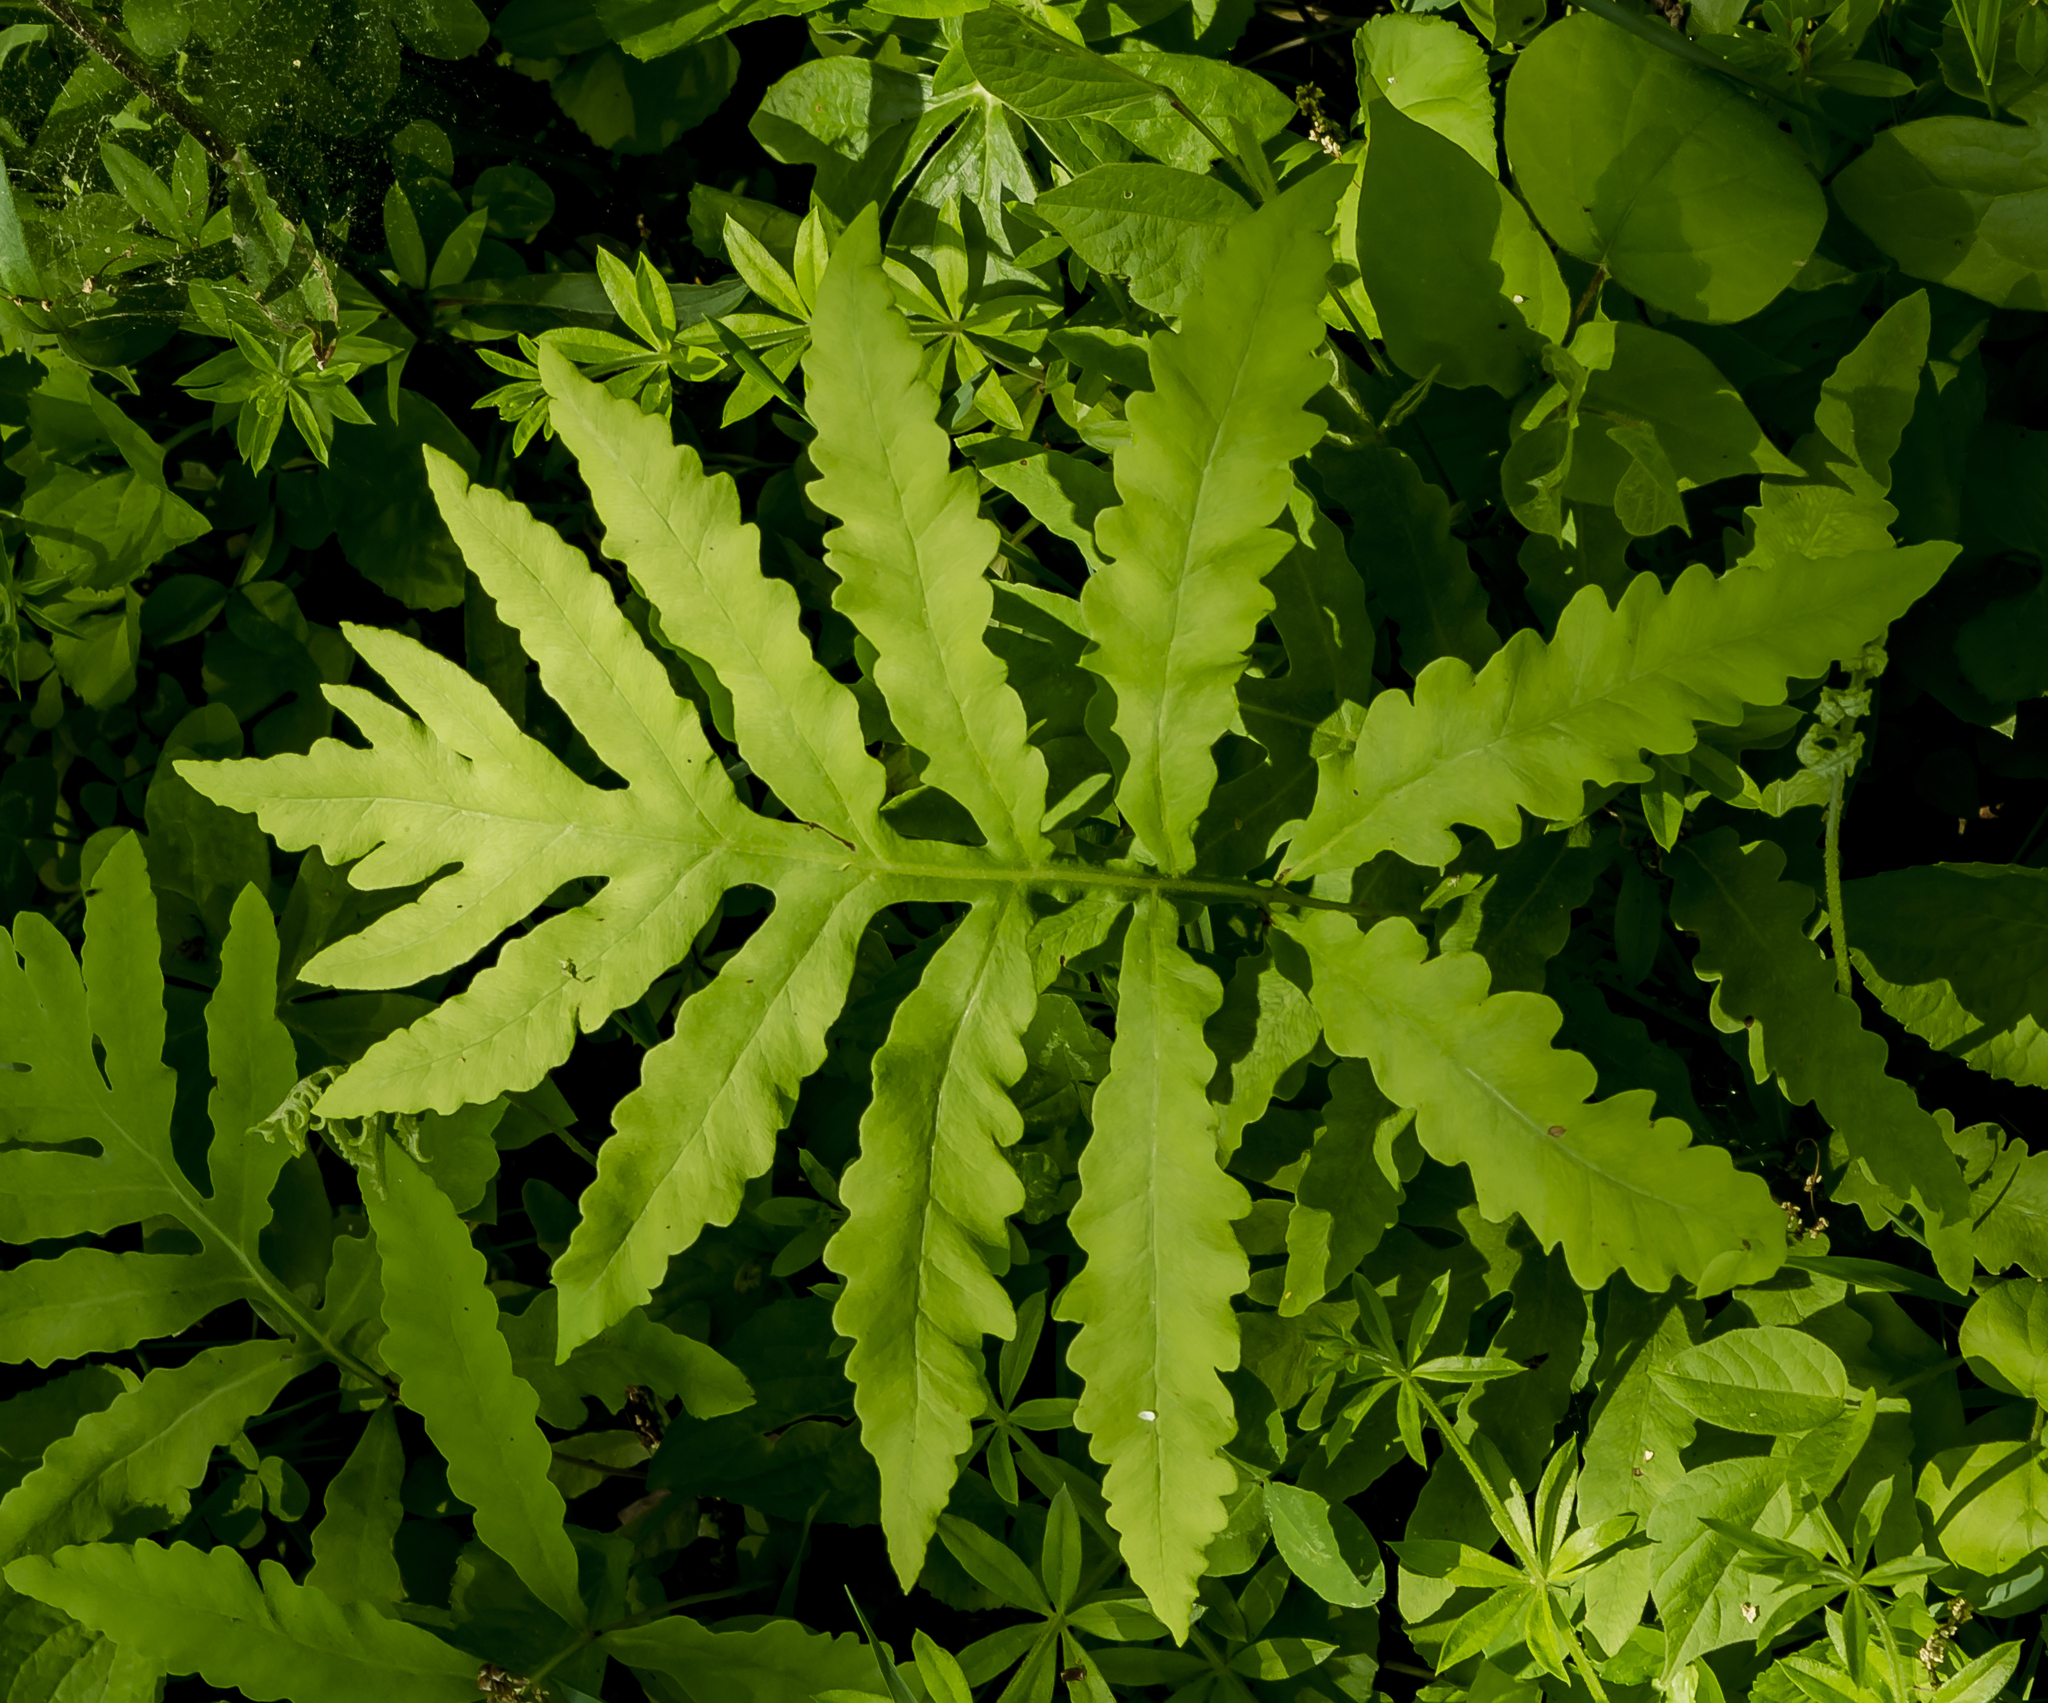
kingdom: Plantae
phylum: Tracheophyta
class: Polypodiopsida
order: Polypodiales
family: Onocleaceae
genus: Onoclea
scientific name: Onoclea sensibilis
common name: Sensitive fern
